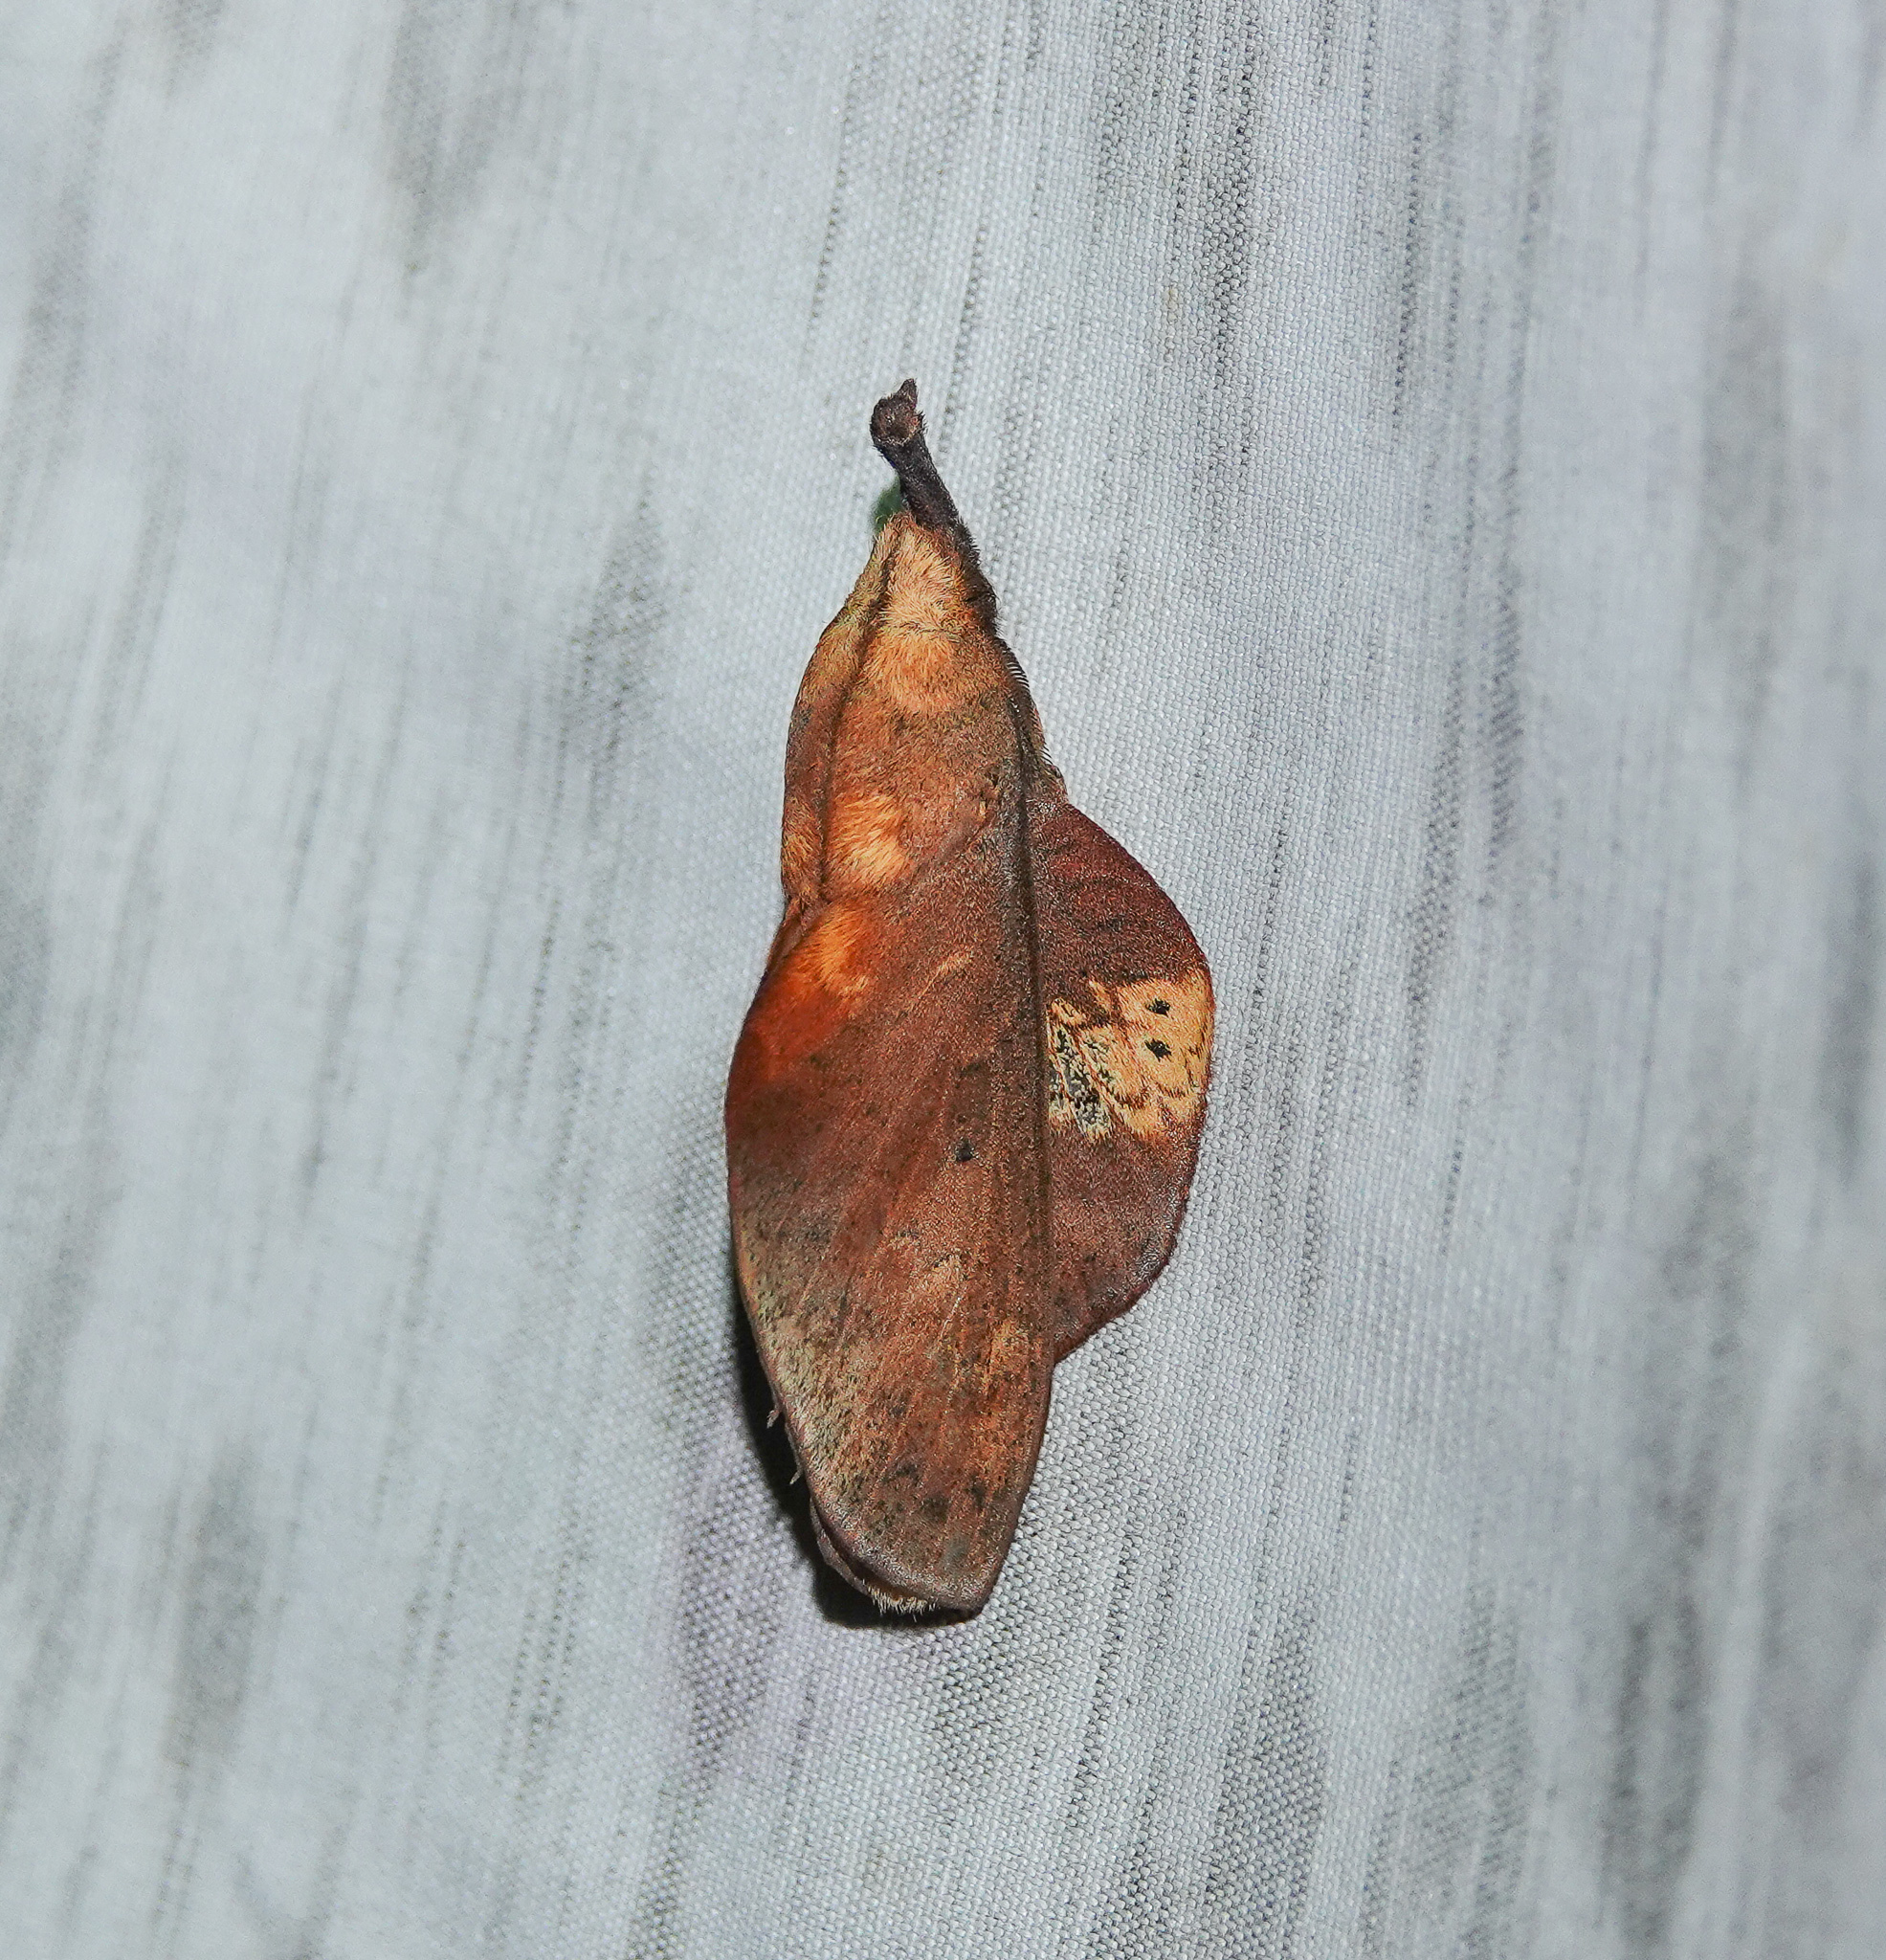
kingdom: Animalia
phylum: Arthropoda
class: Insecta
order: Lepidoptera
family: Lasiocampidae
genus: Gastropacha
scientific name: Gastropacha pardale
